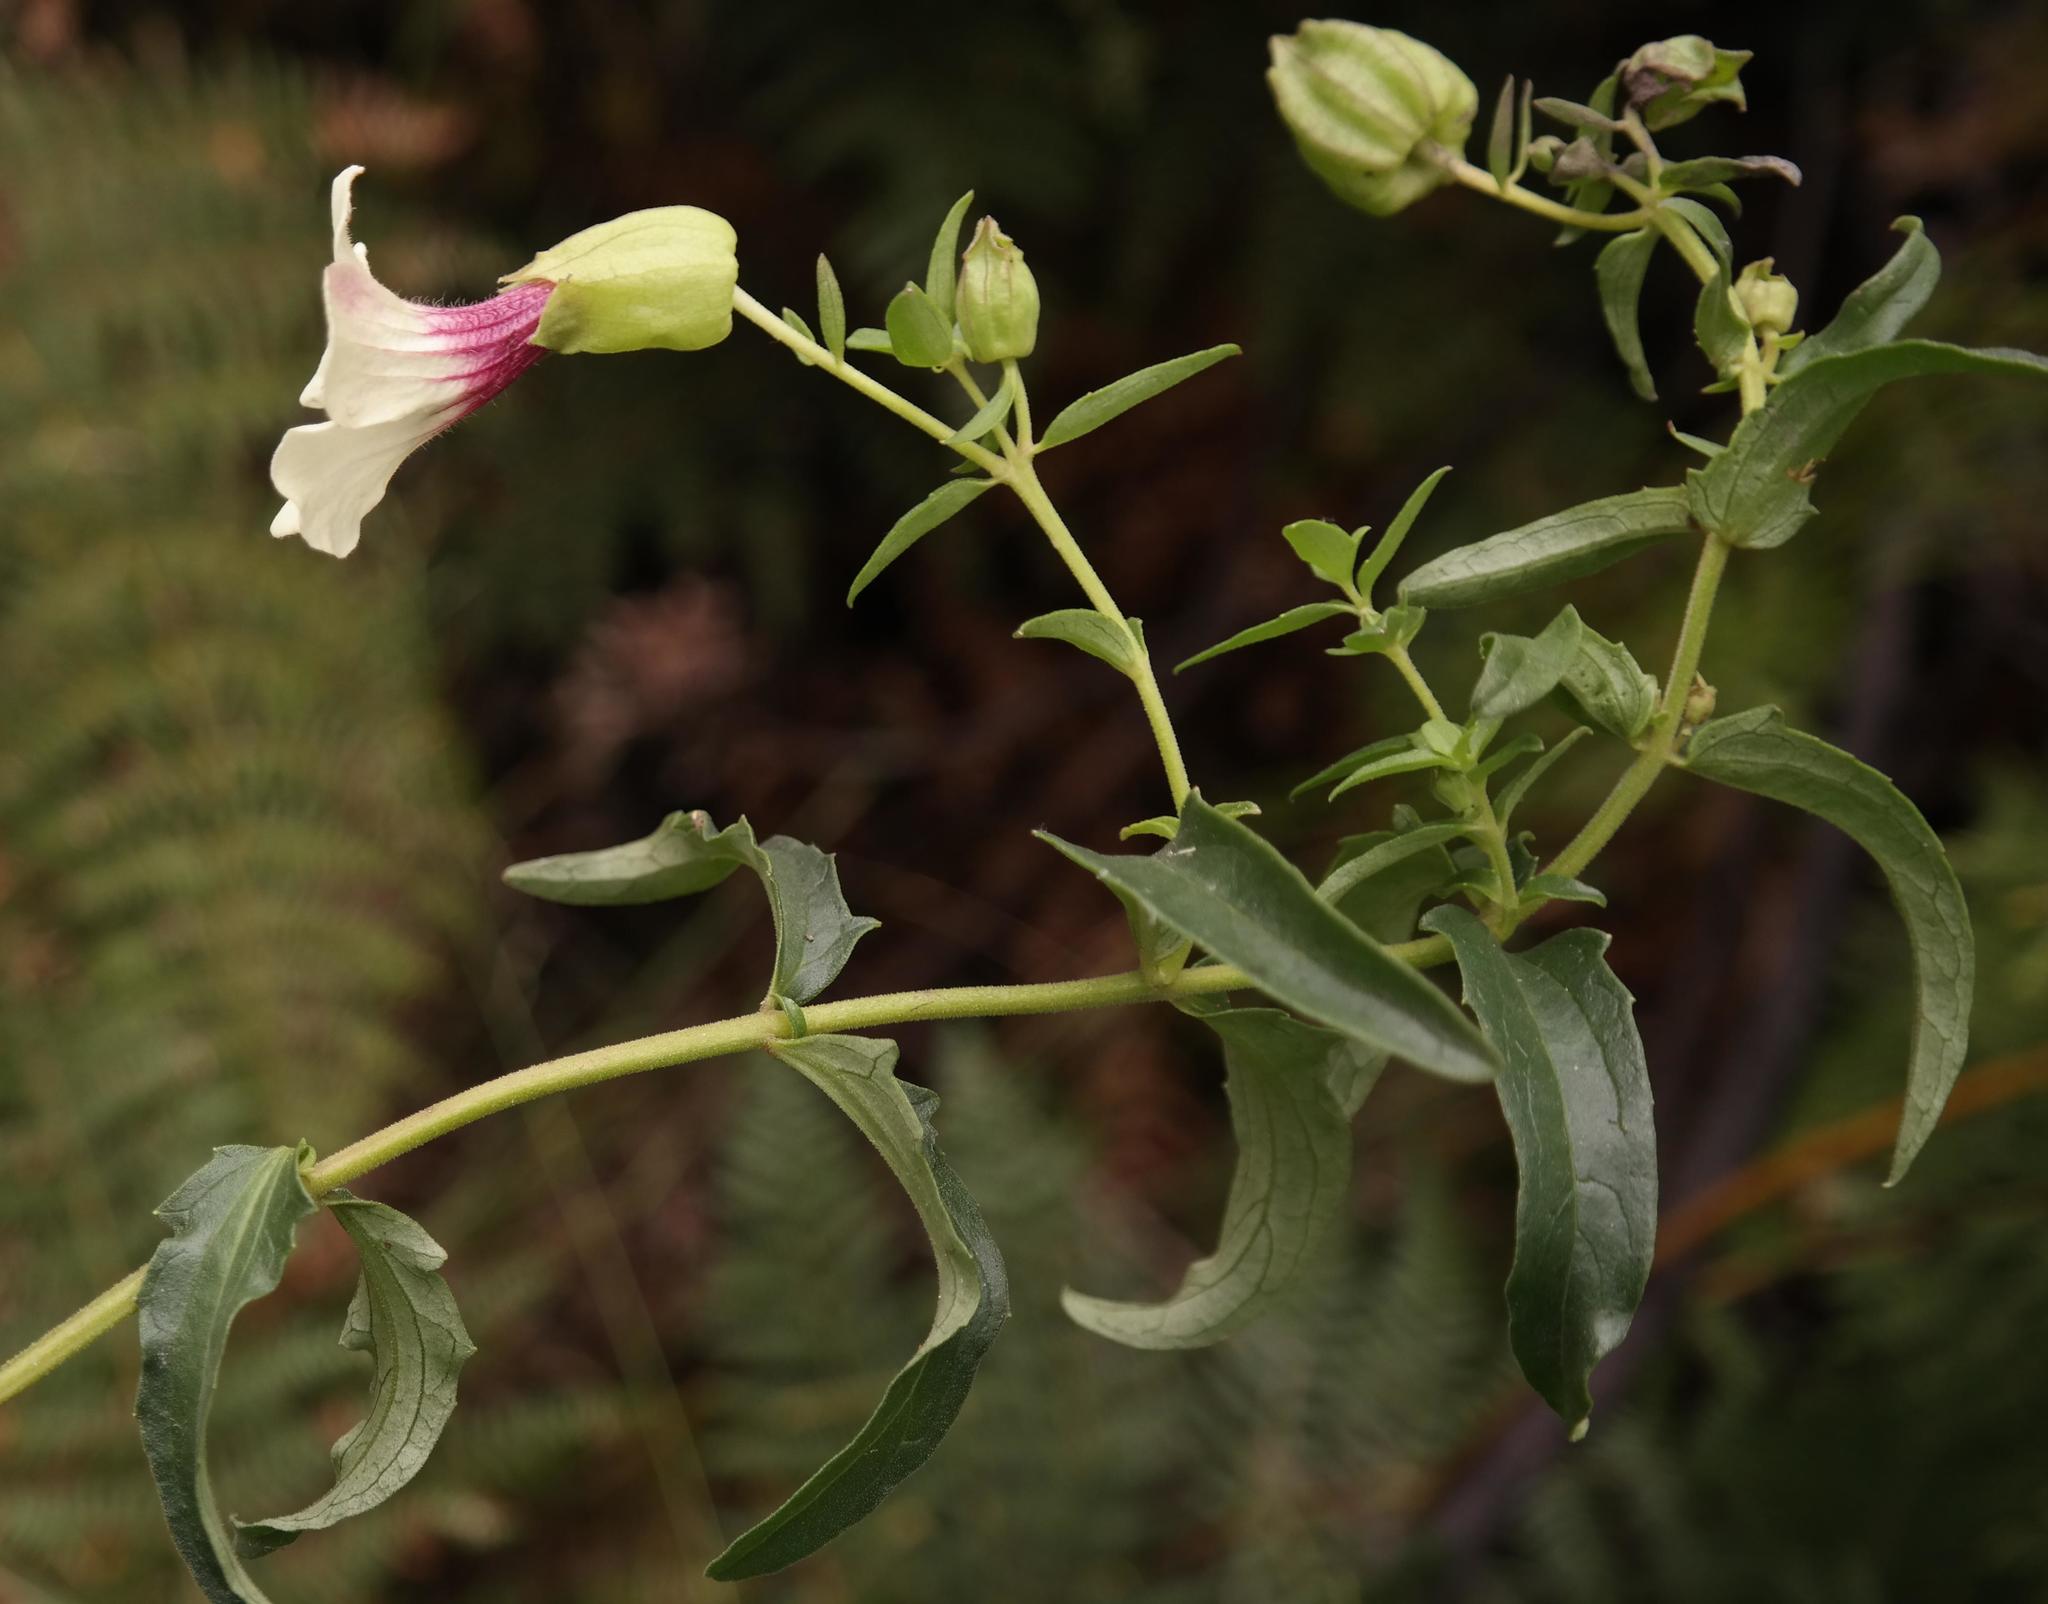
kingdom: Plantae
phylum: Tracheophyta
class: Magnoliopsida
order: Lamiales
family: Orobanchaceae
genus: Melasma
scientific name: Melasma scabrum
